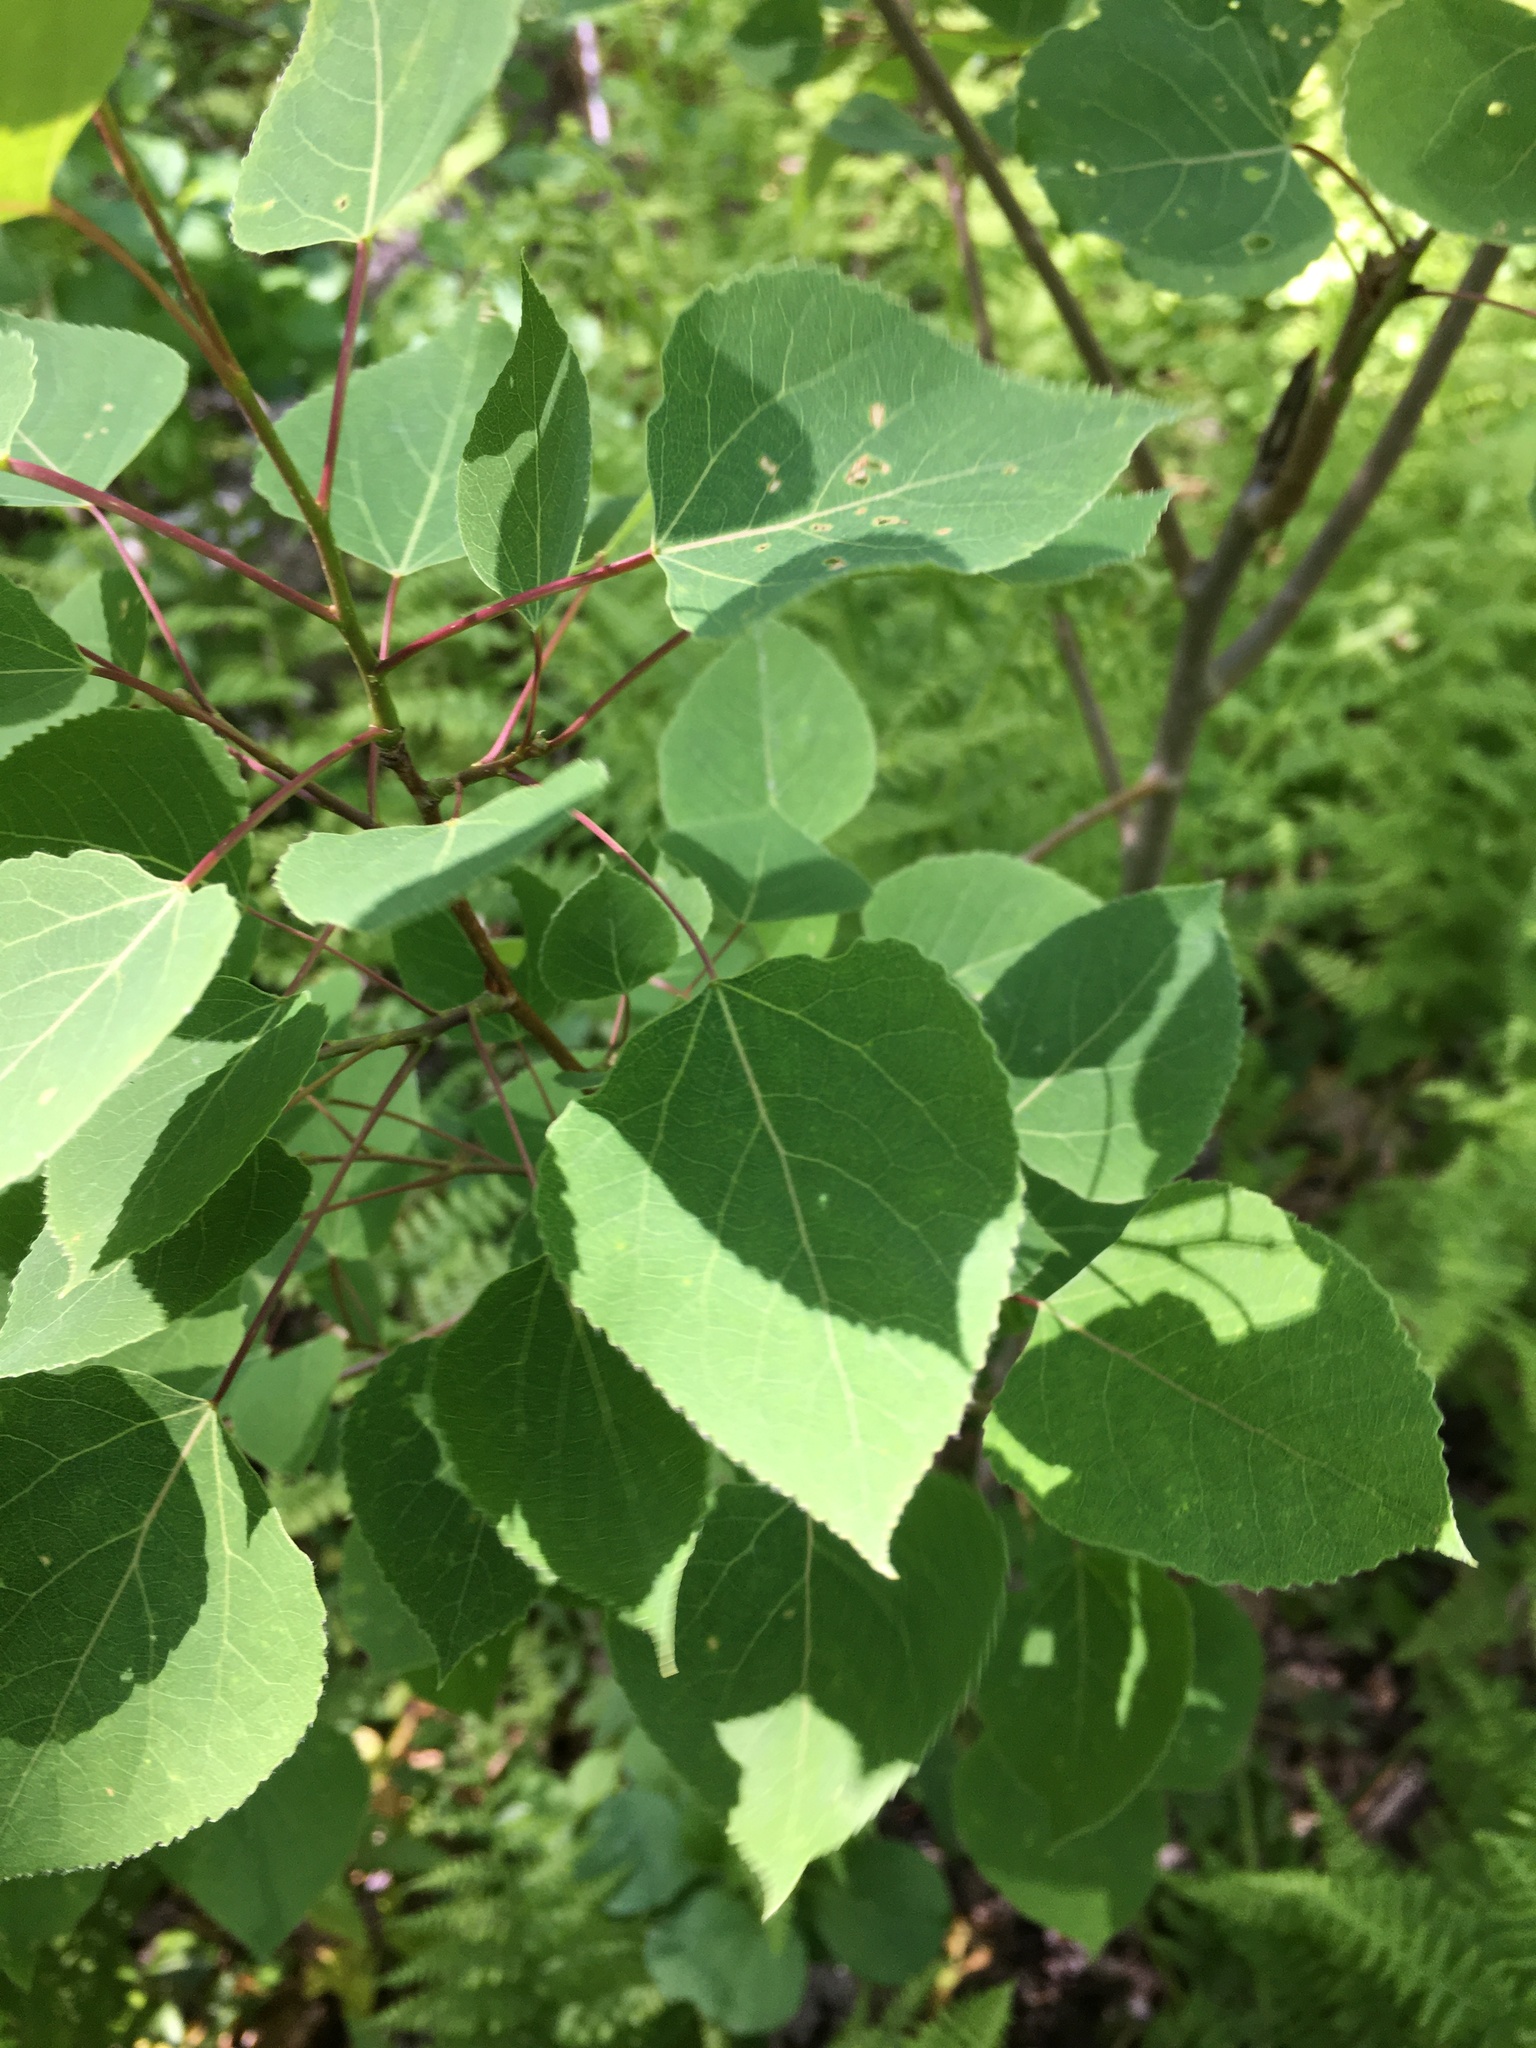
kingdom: Plantae
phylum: Tracheophyta
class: Magnoliopsida
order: Malpighiales
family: Salicaceae
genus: Populus
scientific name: Populus tremuloides
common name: Quaking aspen
